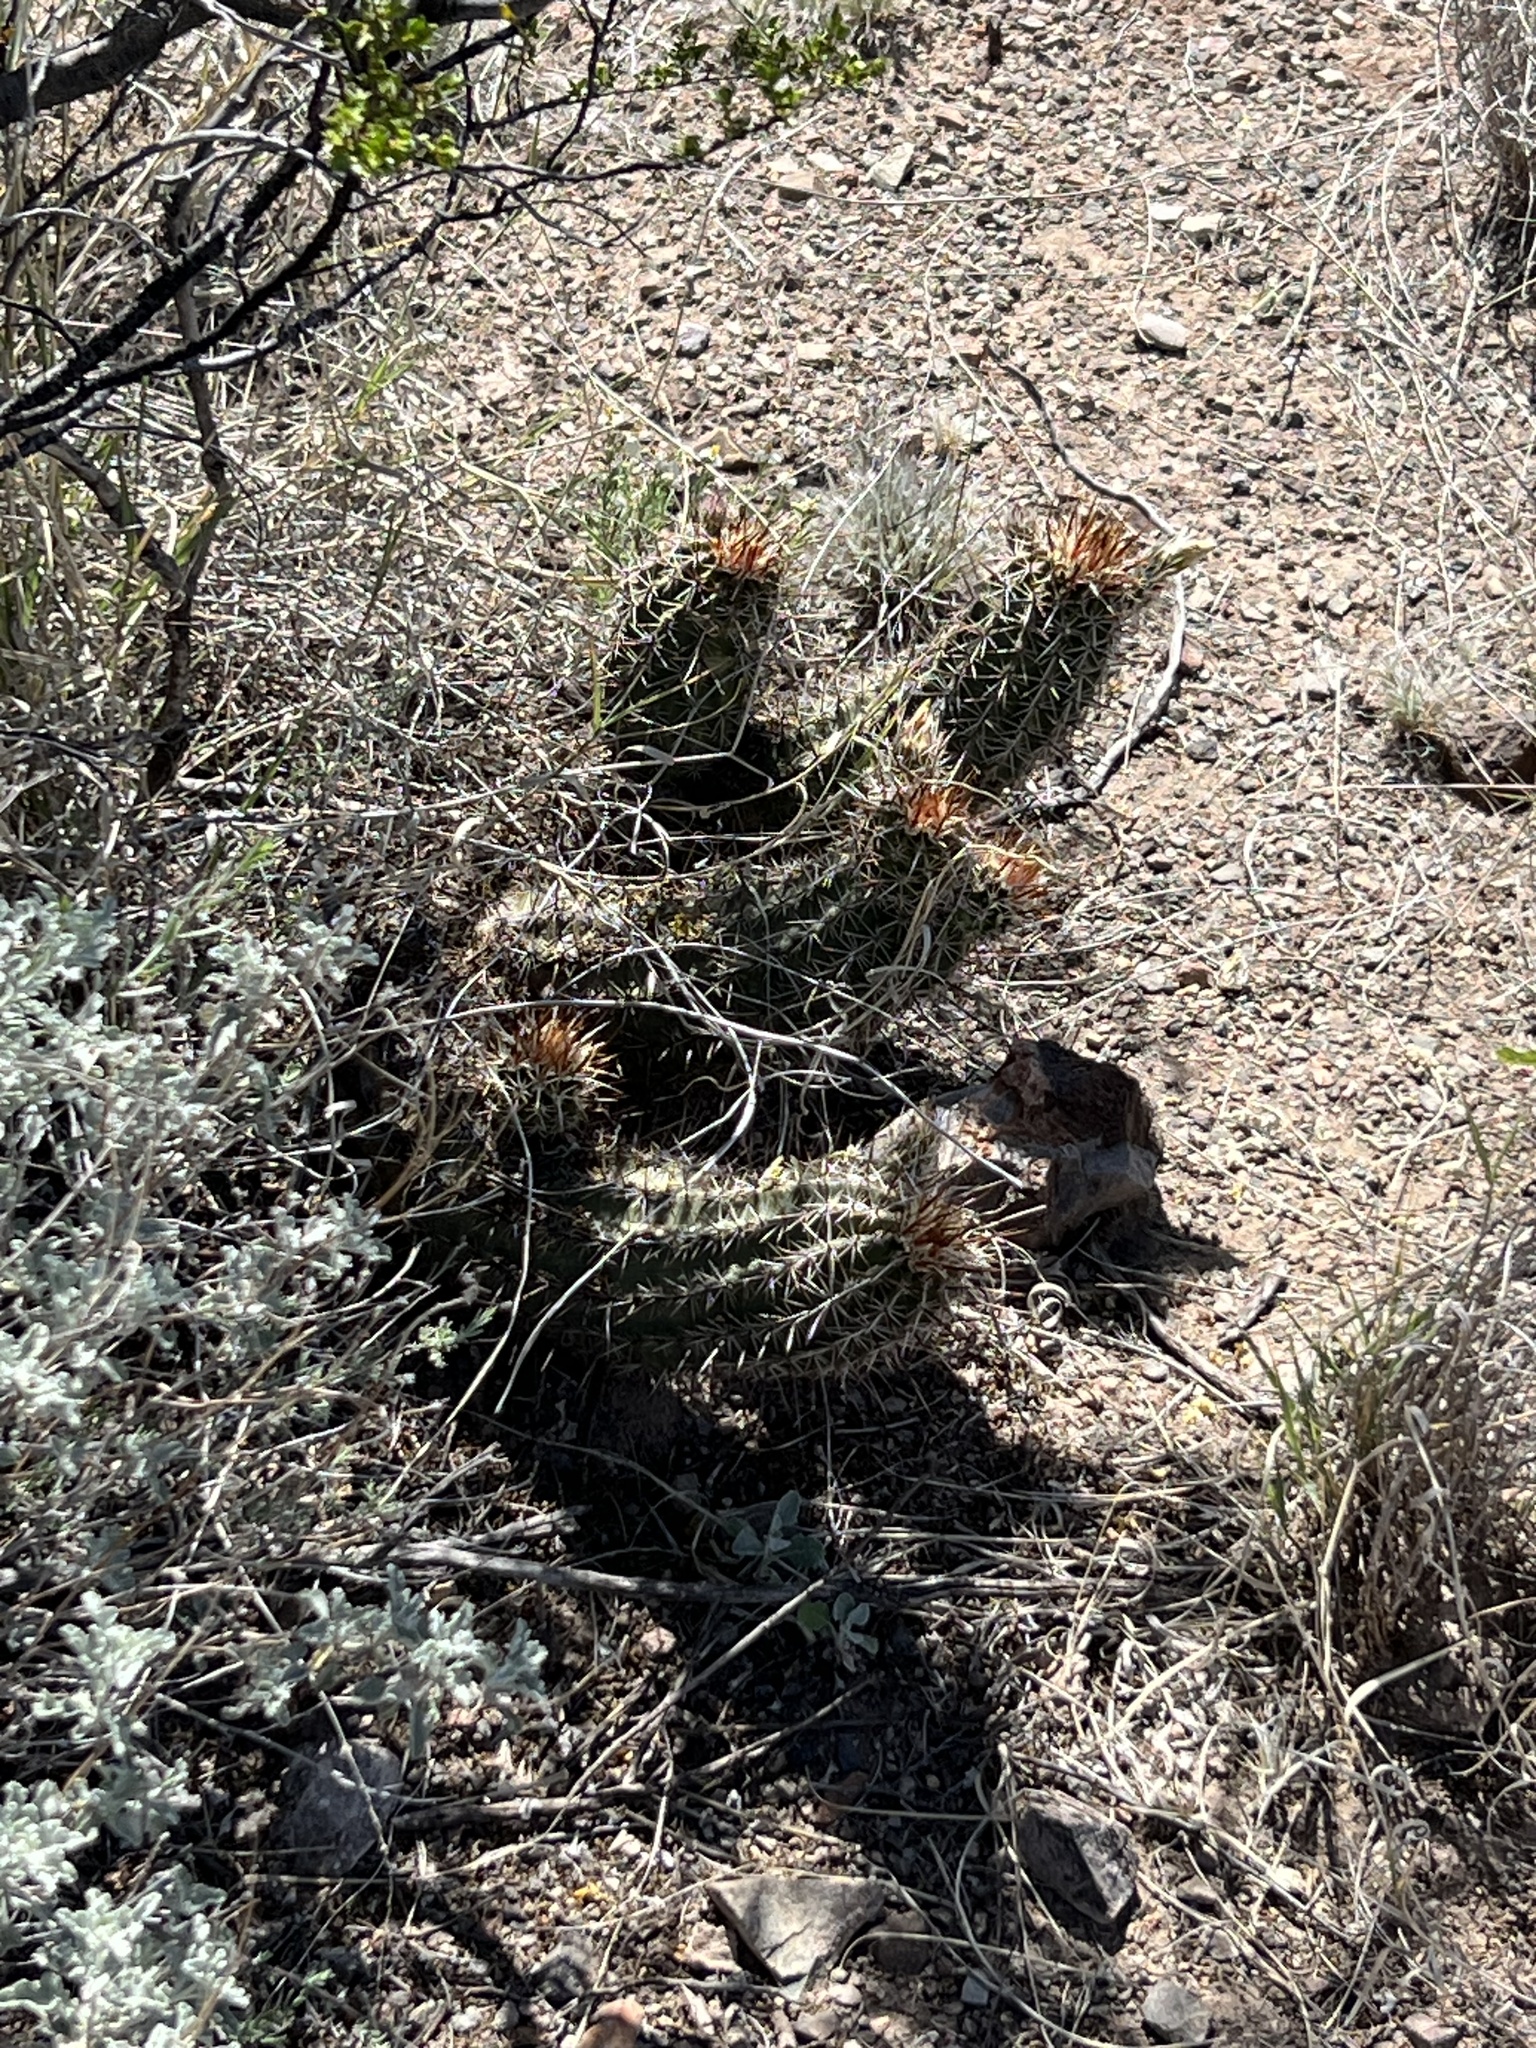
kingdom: Plantae
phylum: Tracheophyta
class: Magnoliopsida
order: Caryophyllales
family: Cactaceae
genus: Echinocereus
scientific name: Echinocereus fasciculatus
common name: Bundle hedgehog
